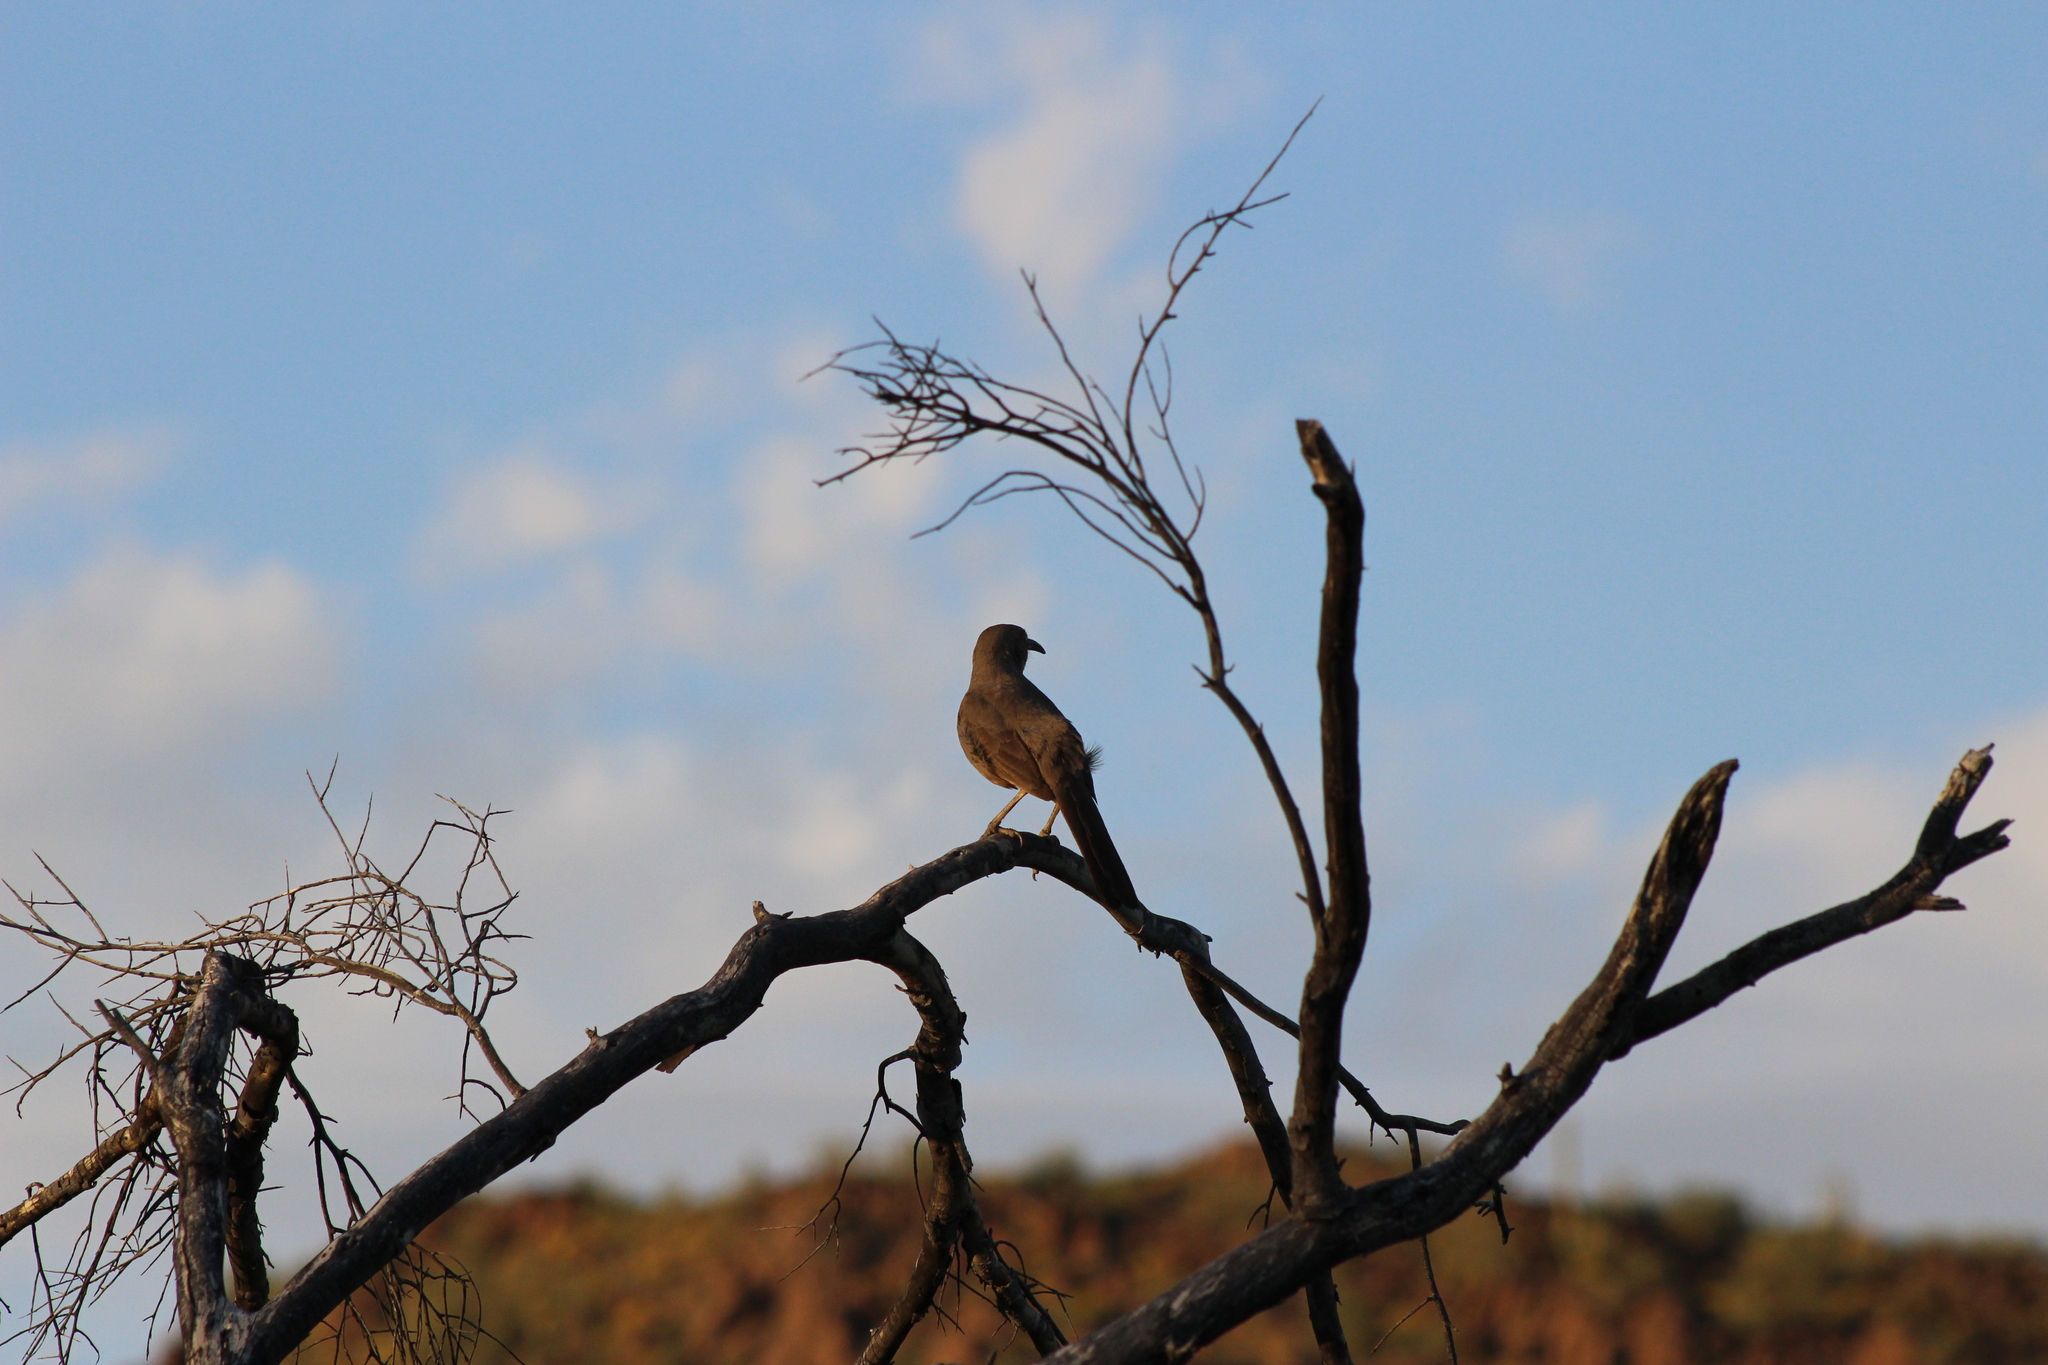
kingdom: Animalia
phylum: Chordata
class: Aves
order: Passeriformes
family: Mimidae
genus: Toxostoma
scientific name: Toxostoma curvirostre
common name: Curve-billed thrasher
